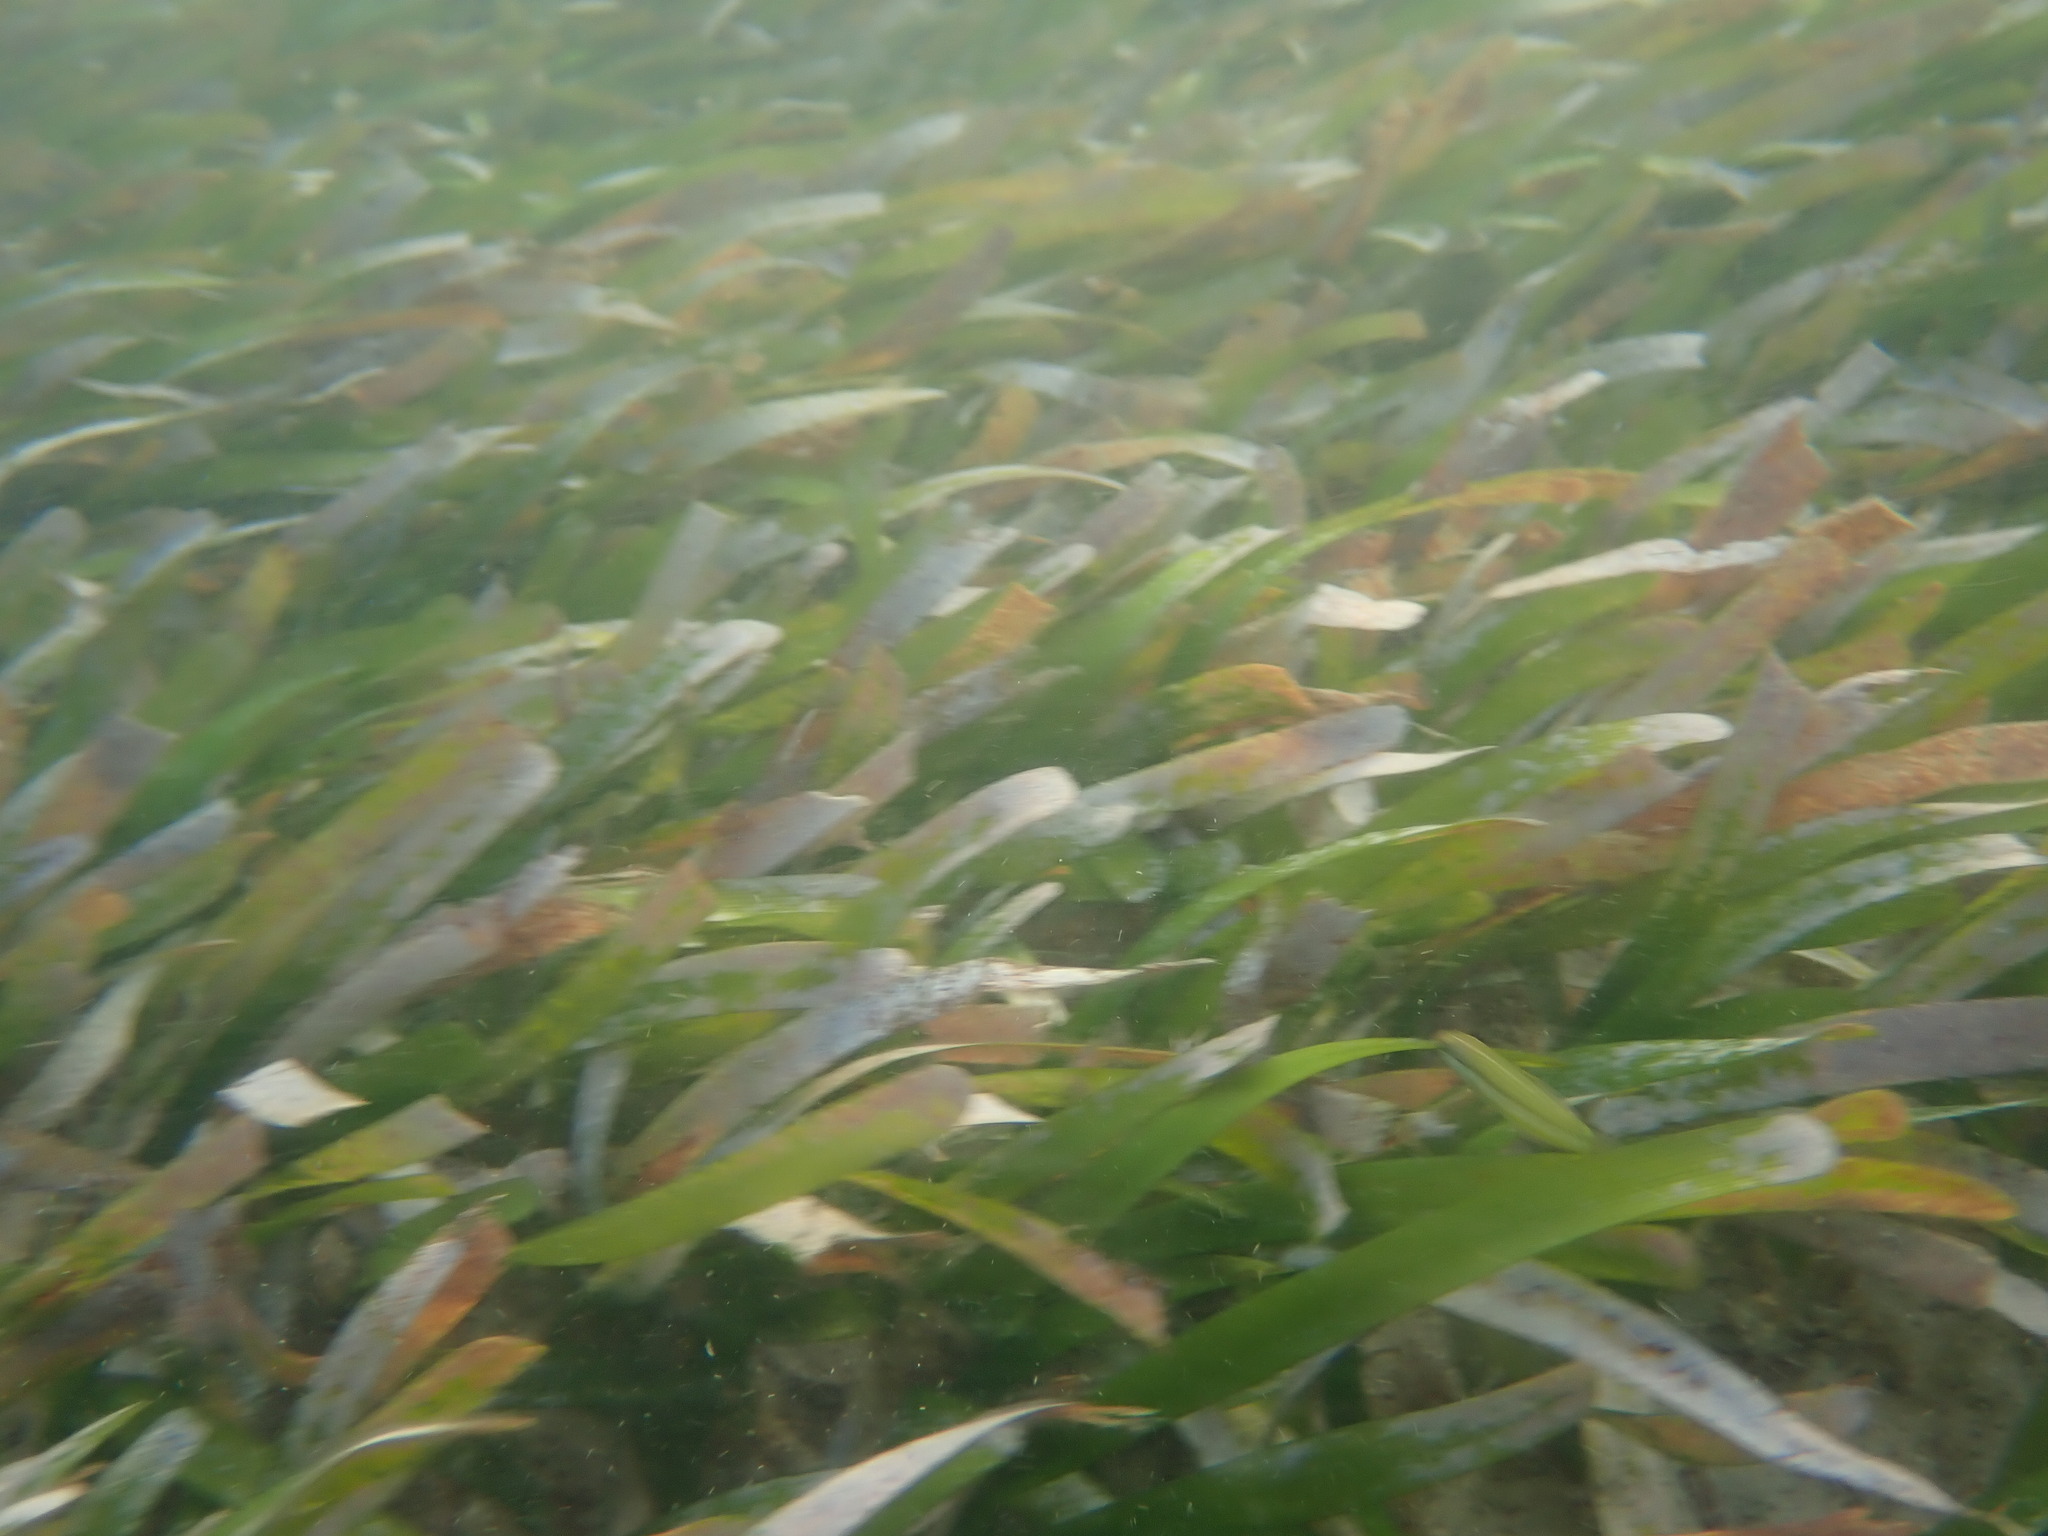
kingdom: Plantae
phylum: Tracheophyta
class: Liliopsida
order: Alismatales
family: Hydrocharitaceae
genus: Thalassia
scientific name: Thalassia testudinum
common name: Species code: tt
